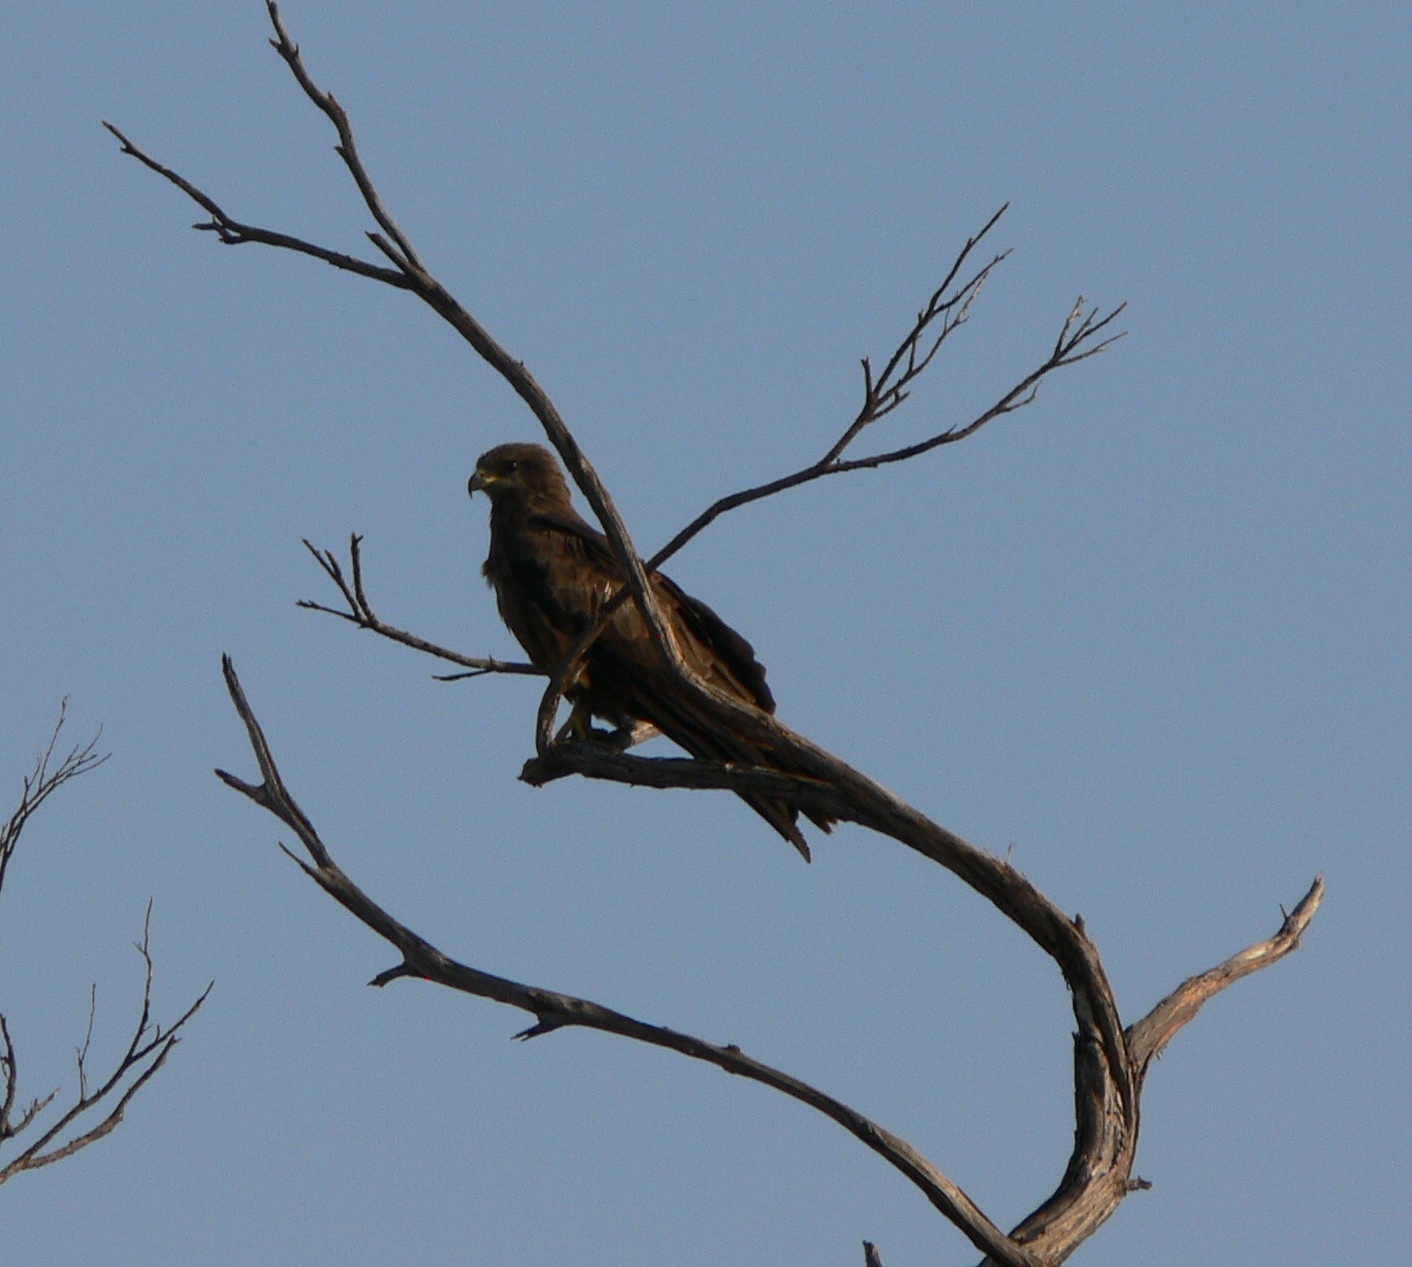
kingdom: Animalia
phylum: Chordata
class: Aves
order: Accipitriformes
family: Accipitridae
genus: Milvus
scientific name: Milvus migrans
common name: Black kite
